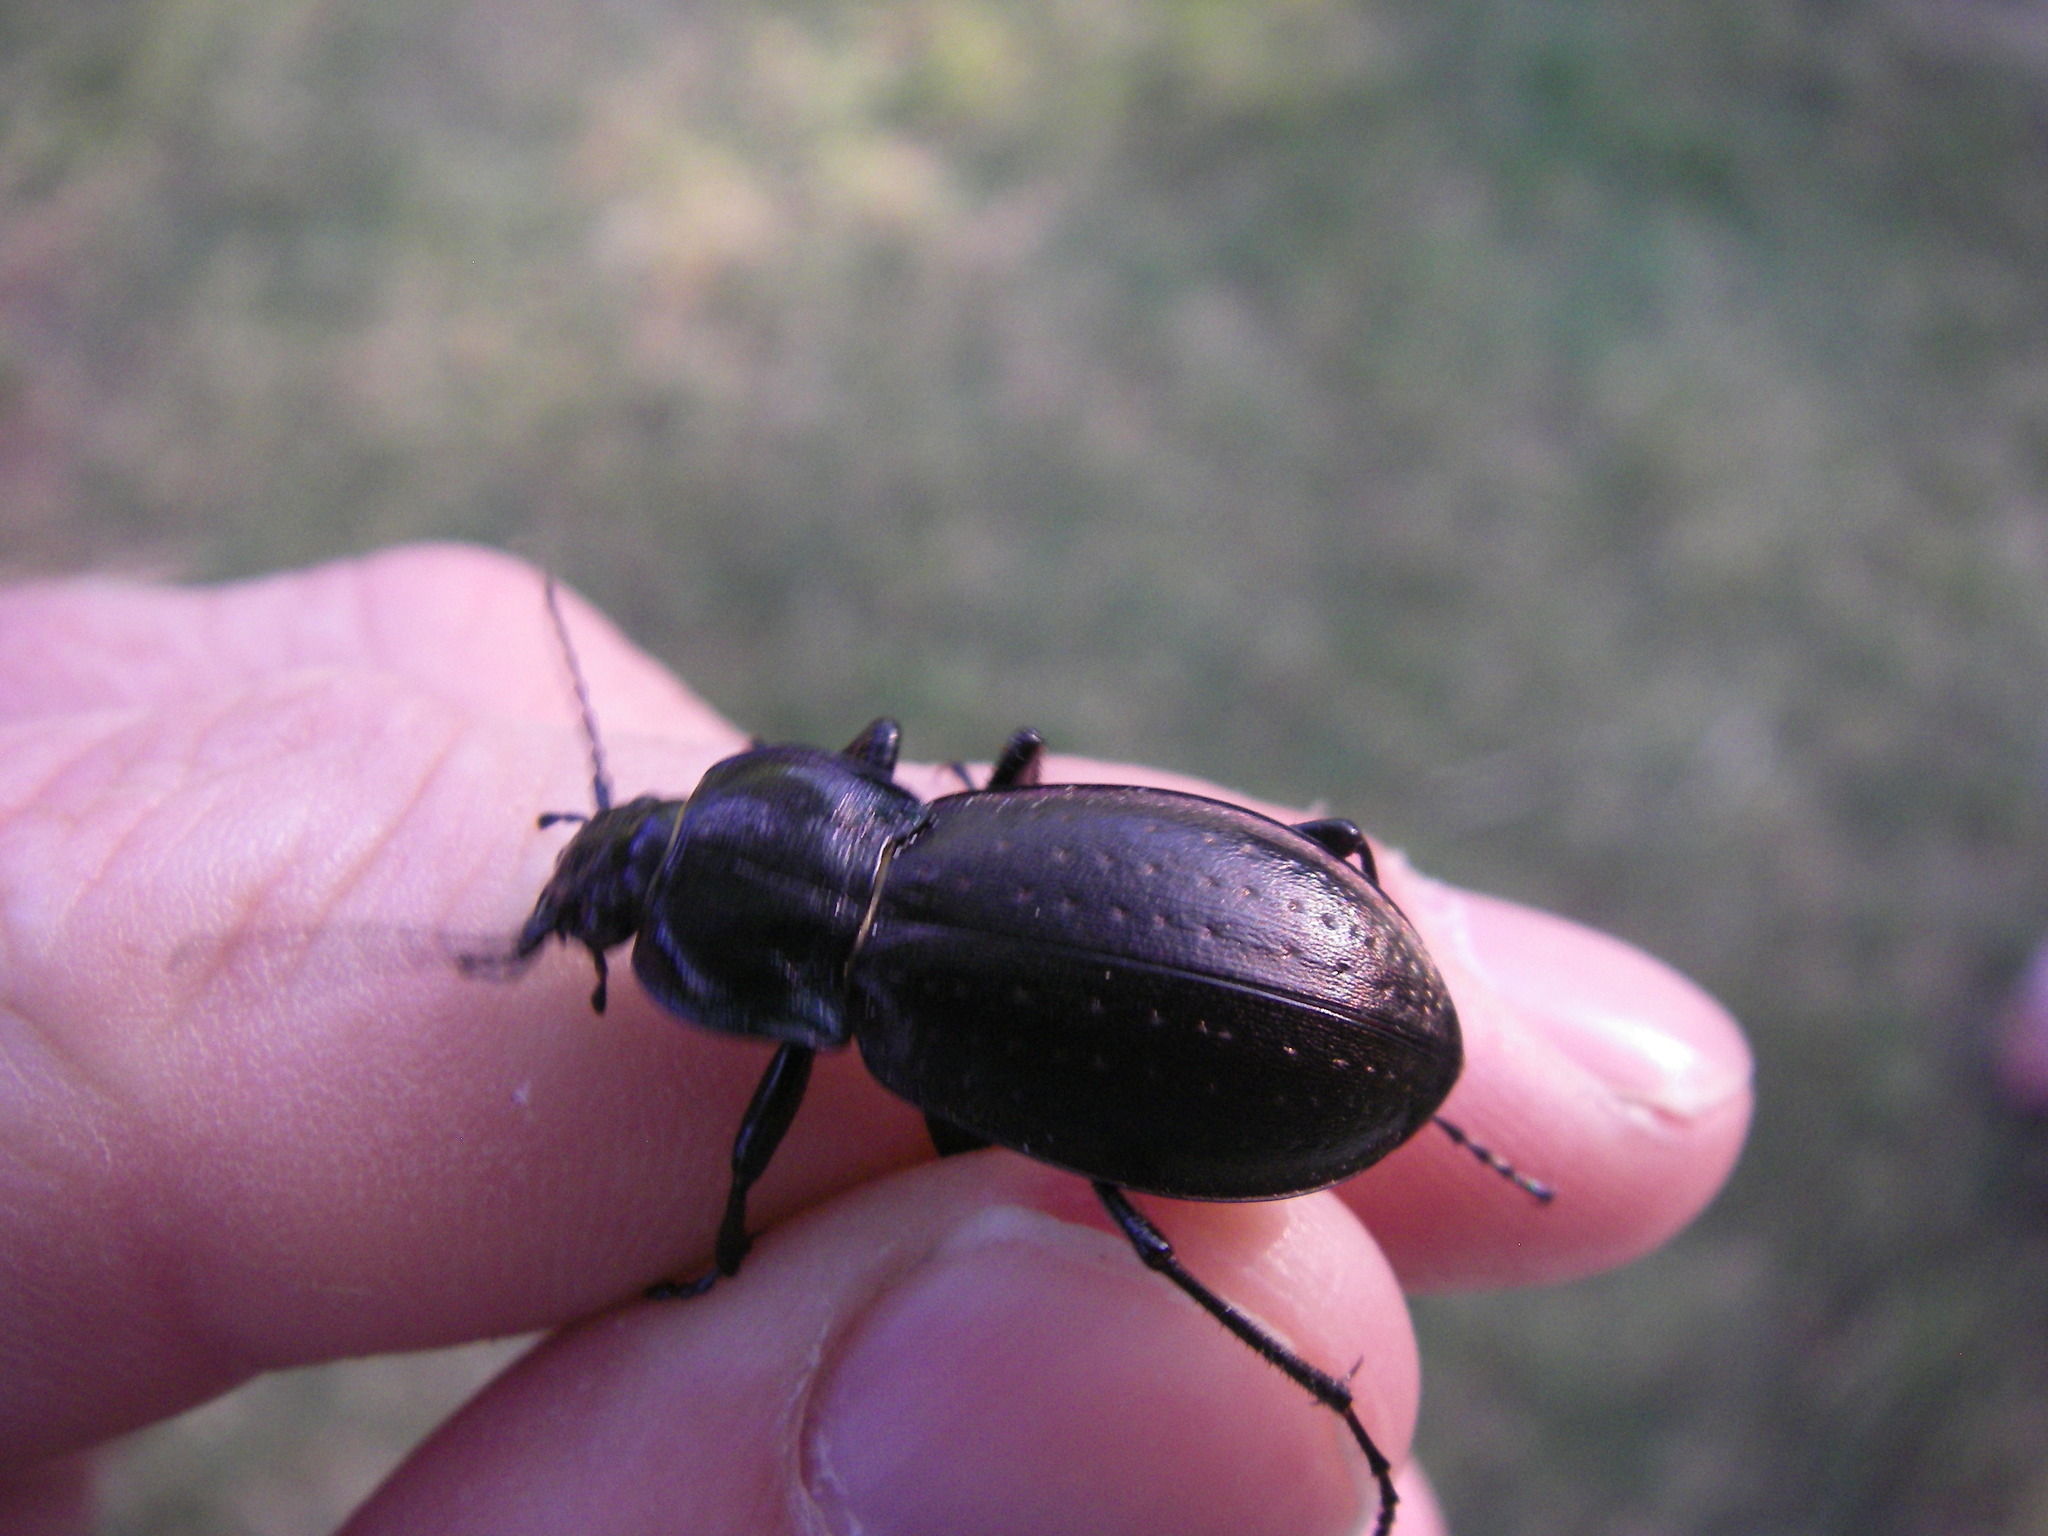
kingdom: Animalia
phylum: Arthropoda
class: Insecta
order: Coleoptera
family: Carabidae
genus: Carabus
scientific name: Carabus nemoralis
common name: European ground beetle
